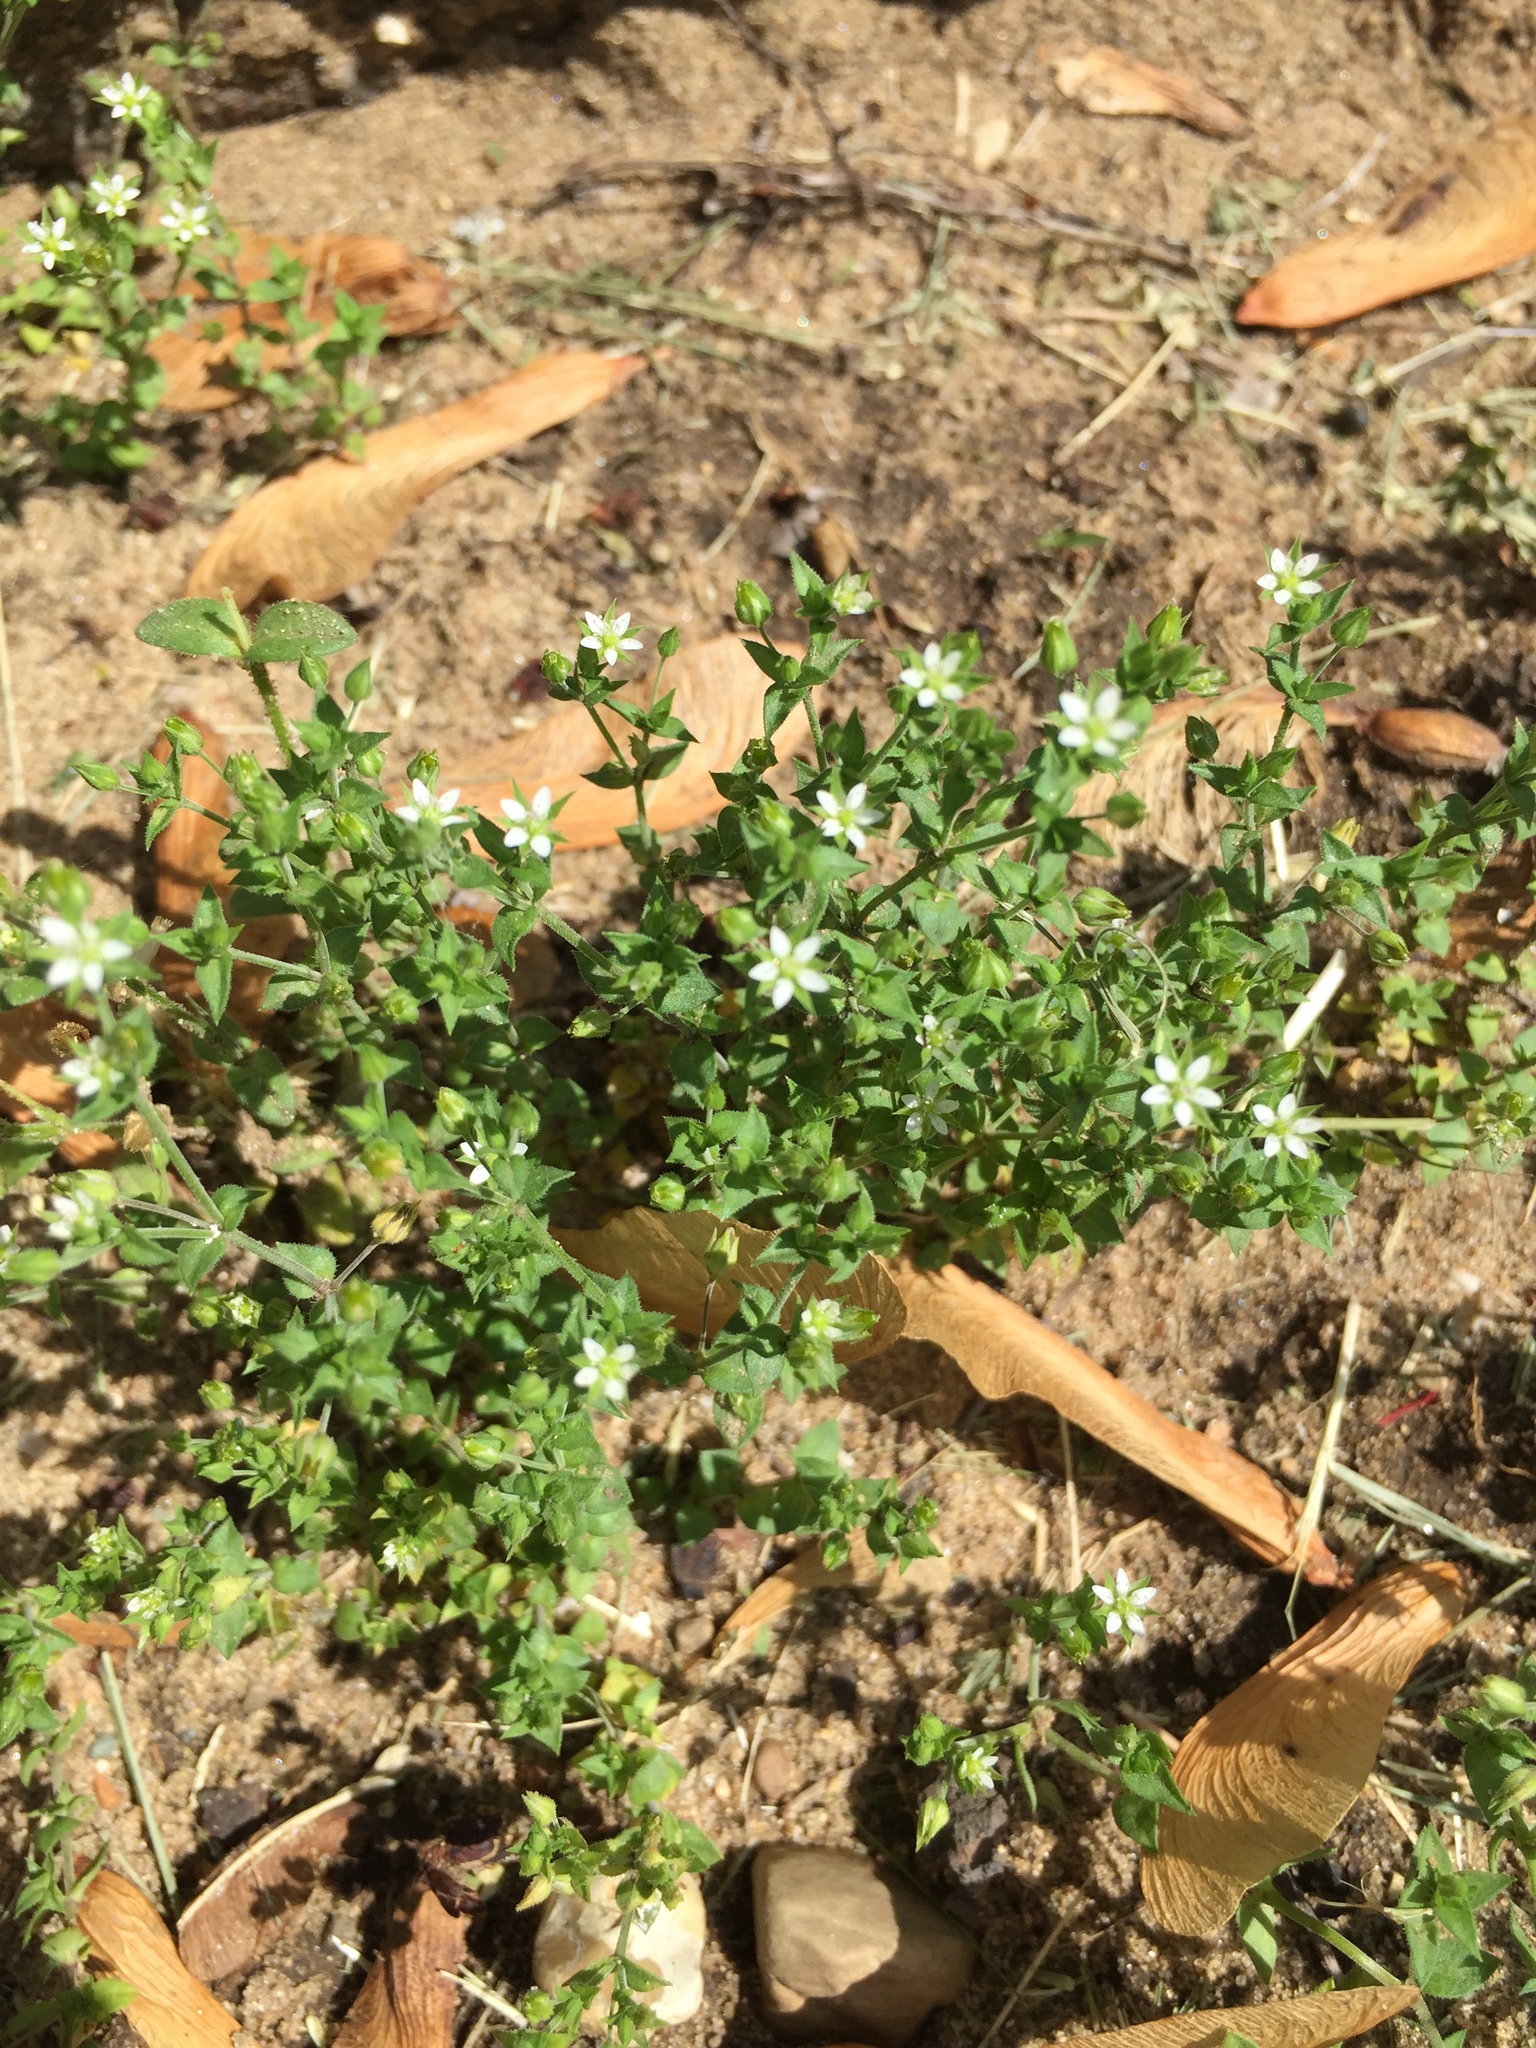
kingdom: Plantae
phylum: Tracheophyta
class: Magnoliopsida
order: Caryophyllales
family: Caryophyllaceae
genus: Arenaria
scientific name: Arenaria serpyllifolia
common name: Thyme-leaved sandwort
